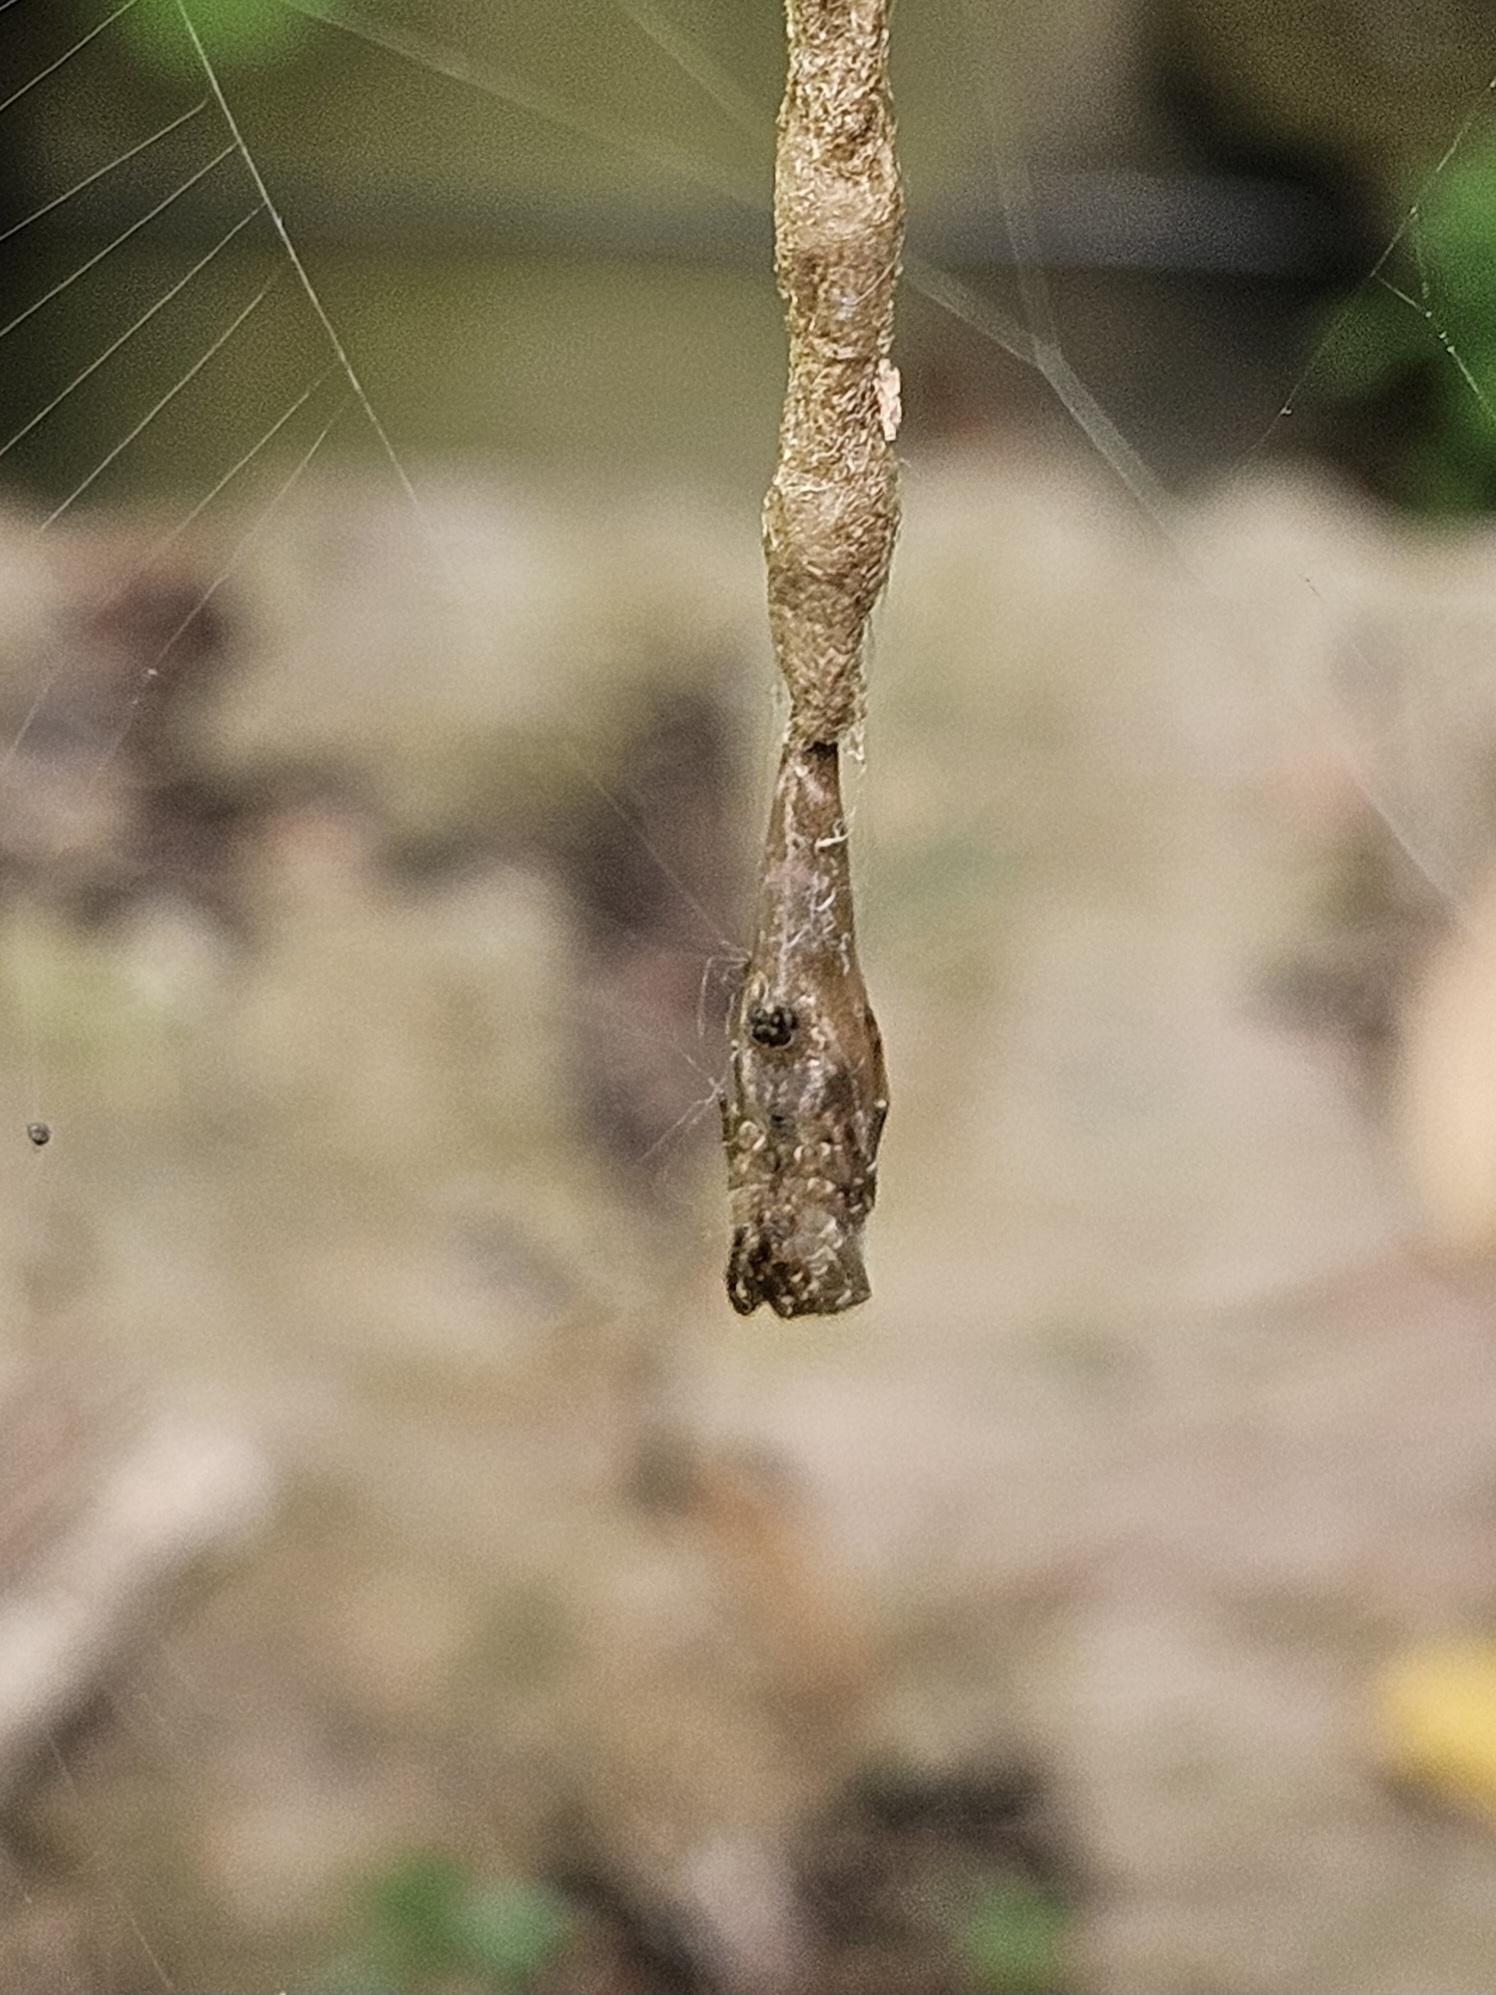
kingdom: Animalia
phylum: Arthropoda
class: Arachnida
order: Araneae
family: Araneidae
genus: Arachnura
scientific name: Arachnura feredayi
